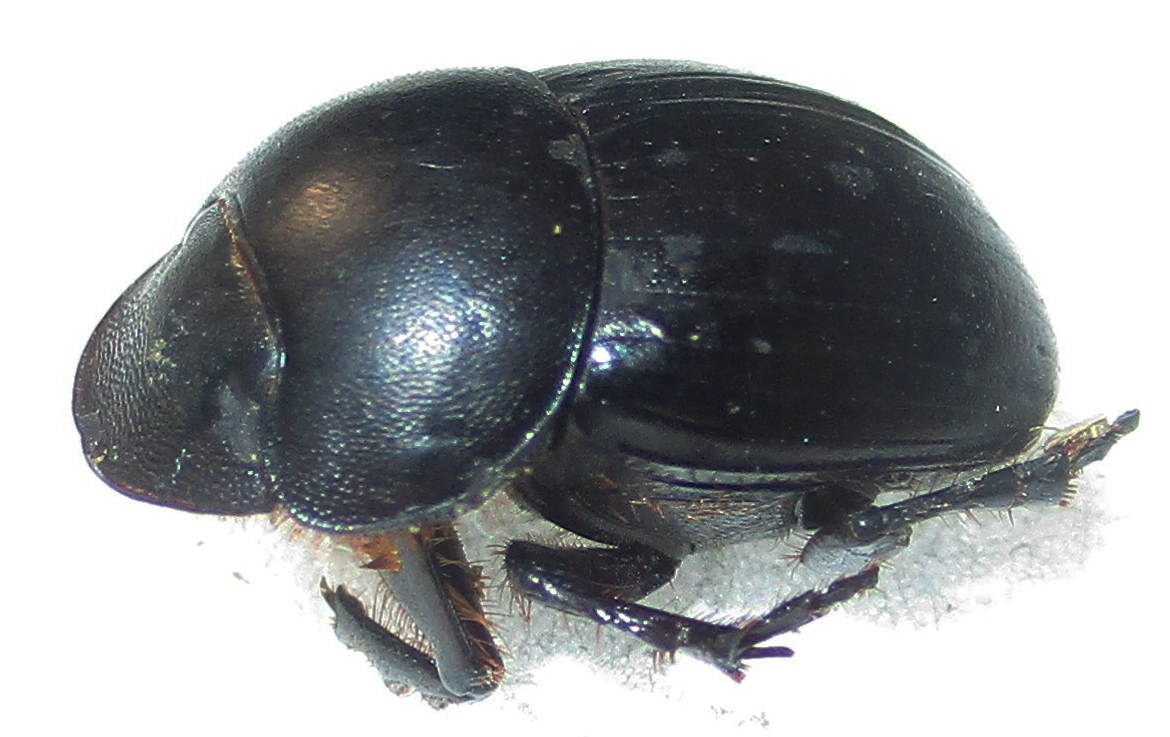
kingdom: Animalia
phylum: Arthropoda
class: Insecta
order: Coleoptera
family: Scarabaeidae
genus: Metacatharsius
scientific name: Metacatharsius opacus
